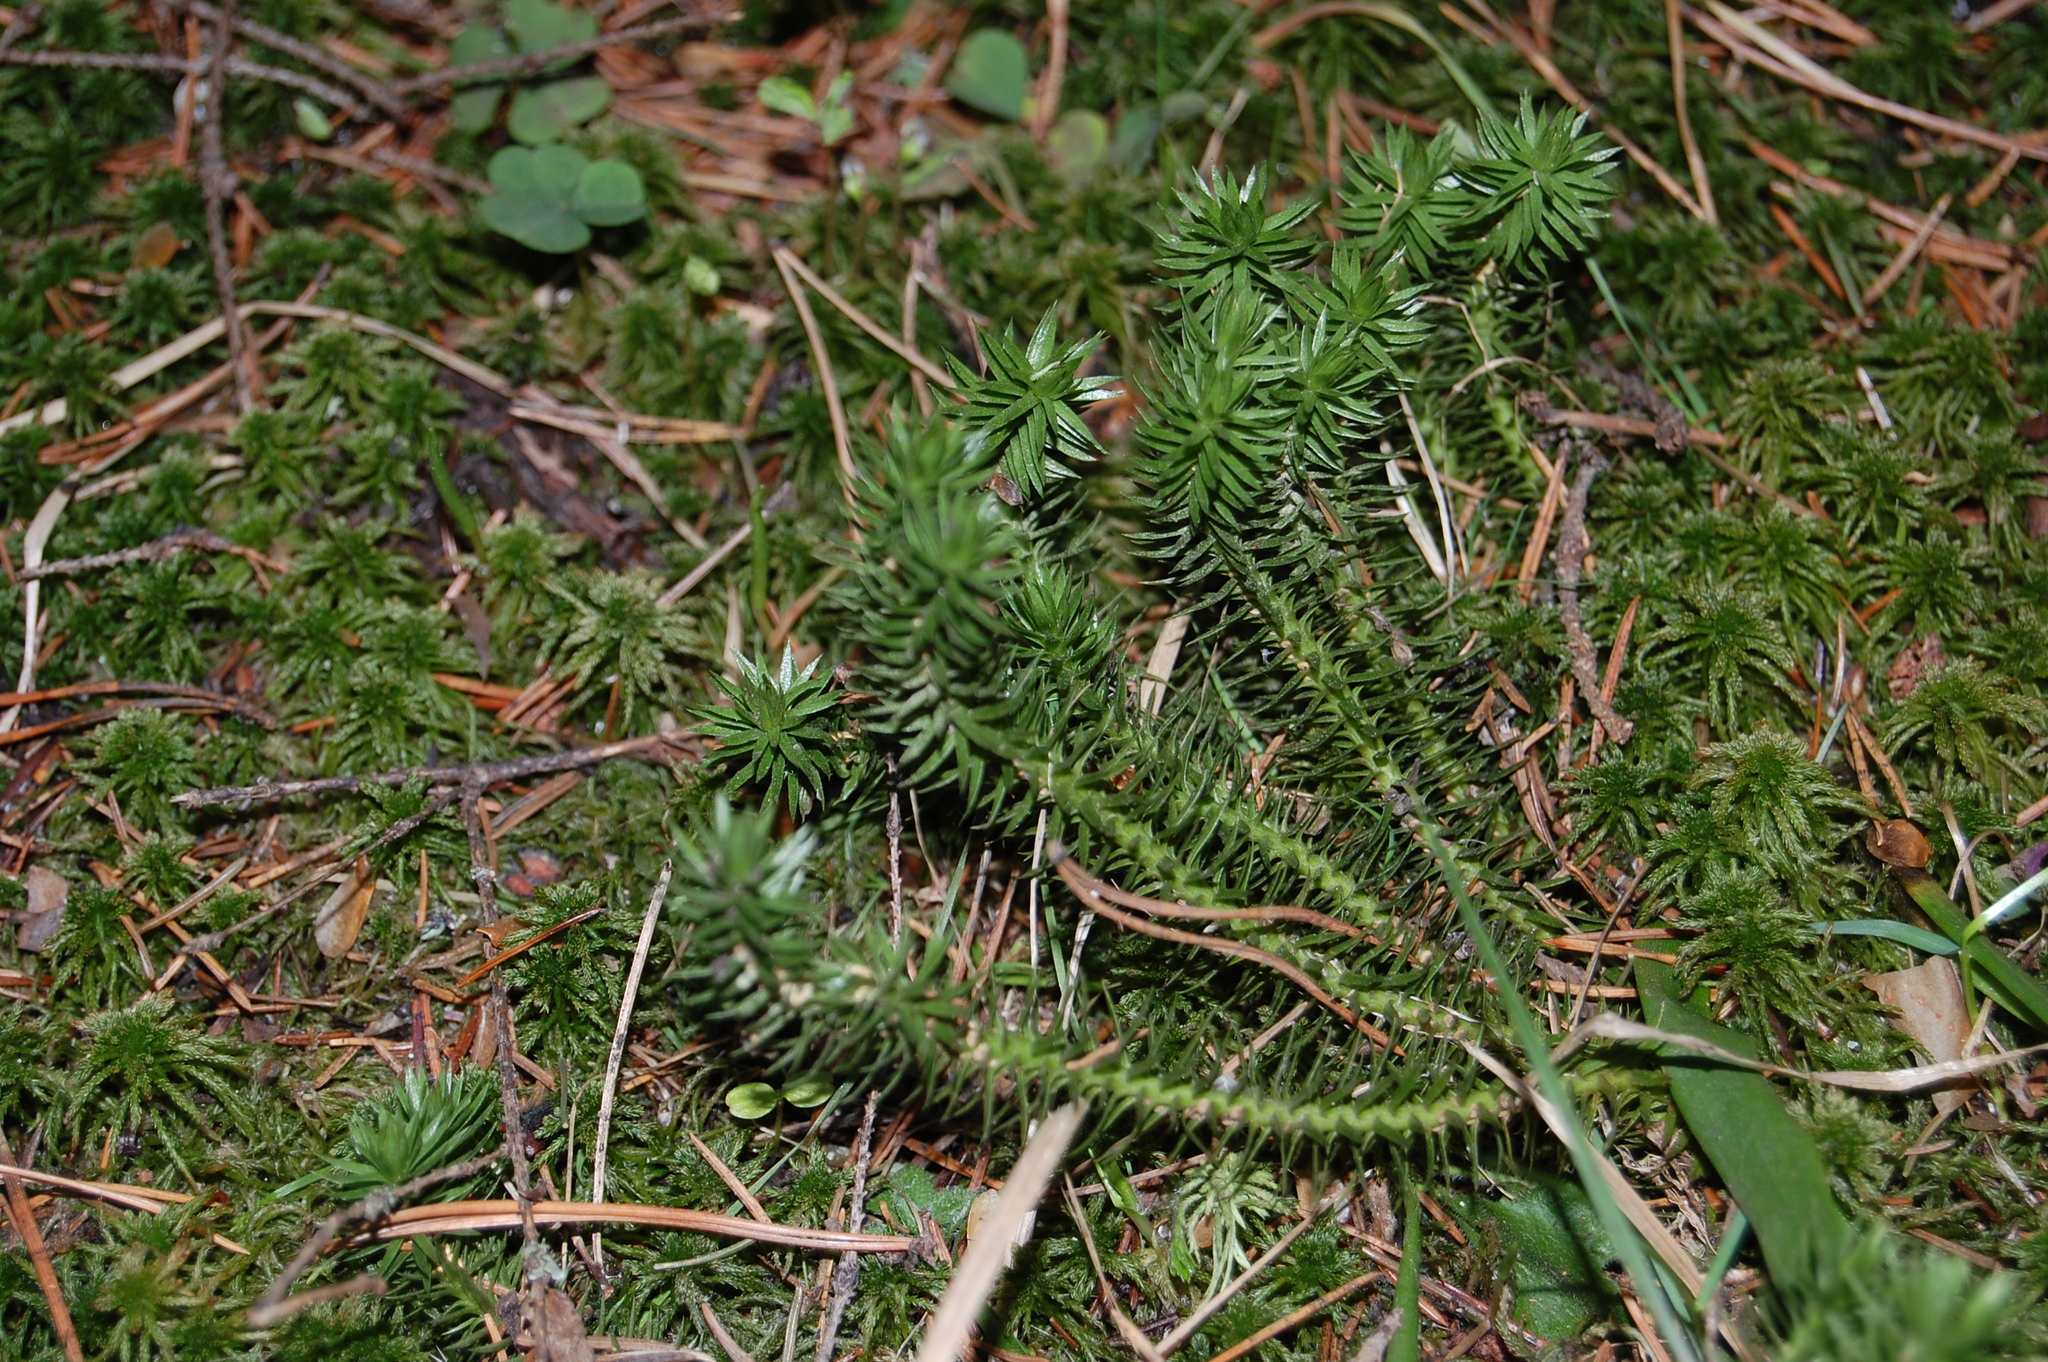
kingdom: Plantae
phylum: Tracheophyta
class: Lycopodiopsida
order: Lycopodiales
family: Lycopodiaceae
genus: Huperzia
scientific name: Huperzia selago
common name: Northern firmoss
